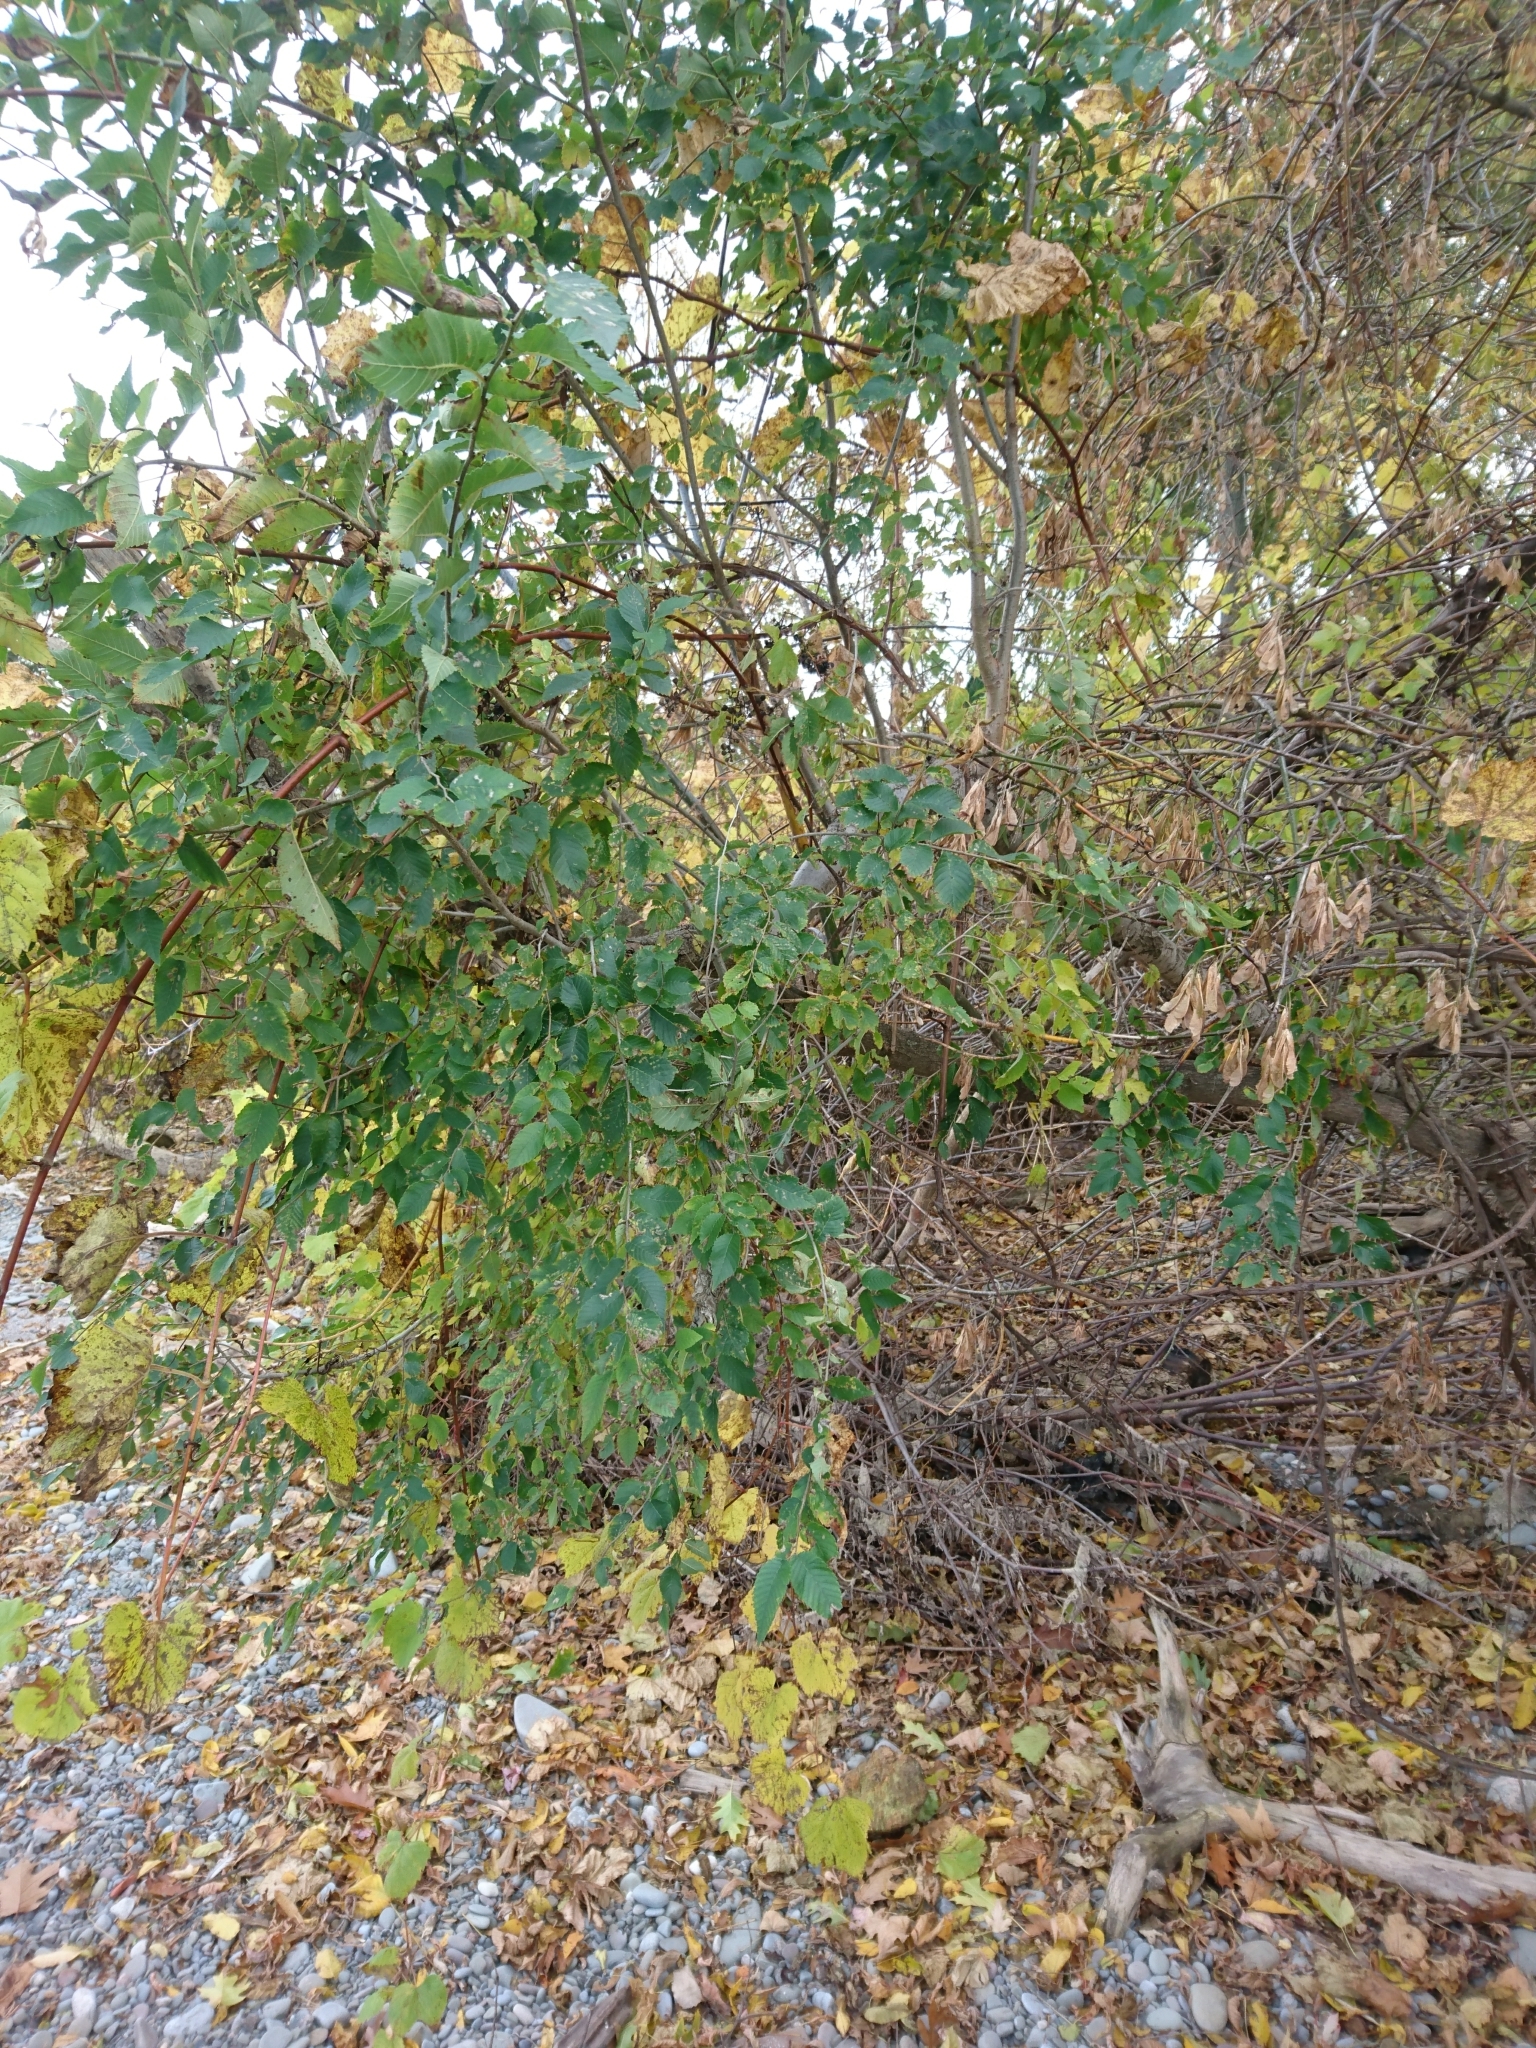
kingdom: Plantae
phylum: Tracheophyta
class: Magnoliopsida
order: Rosales
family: Ulmaceae
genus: Ulmus
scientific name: Ulmus pumila
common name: Siberian elm
